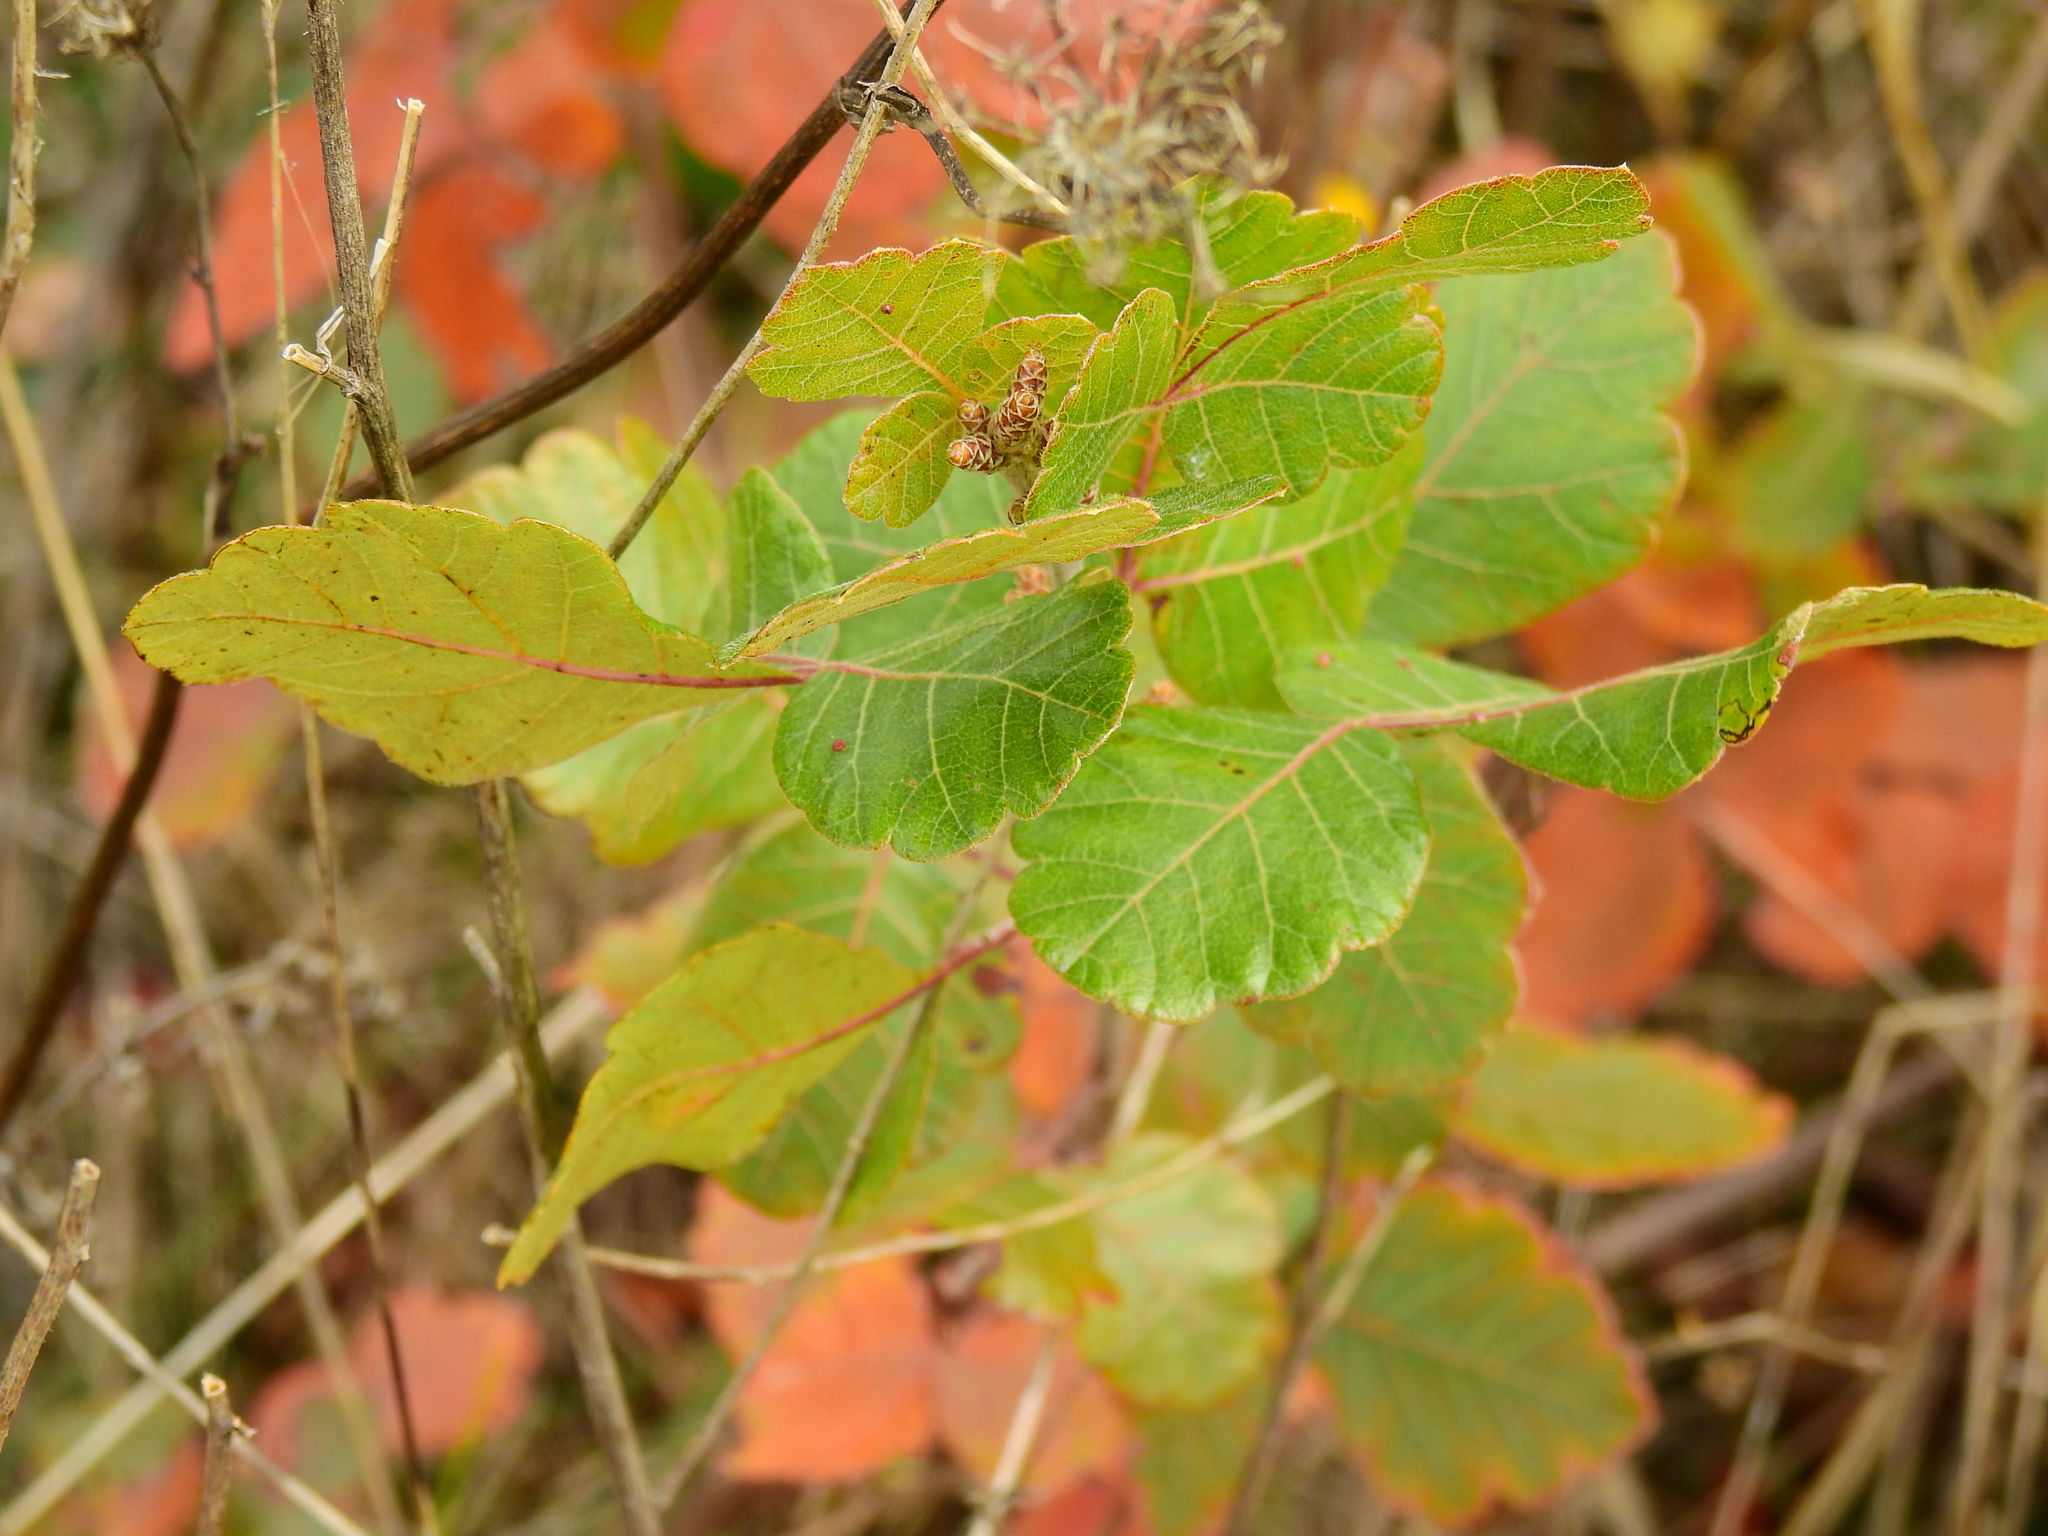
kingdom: Plantae
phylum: Tracheophyta
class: Magnoliopsida
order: Sapindales
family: Anacardiaceae
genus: Rhus
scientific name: Rhus aromatica
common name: Aromatic sumac
